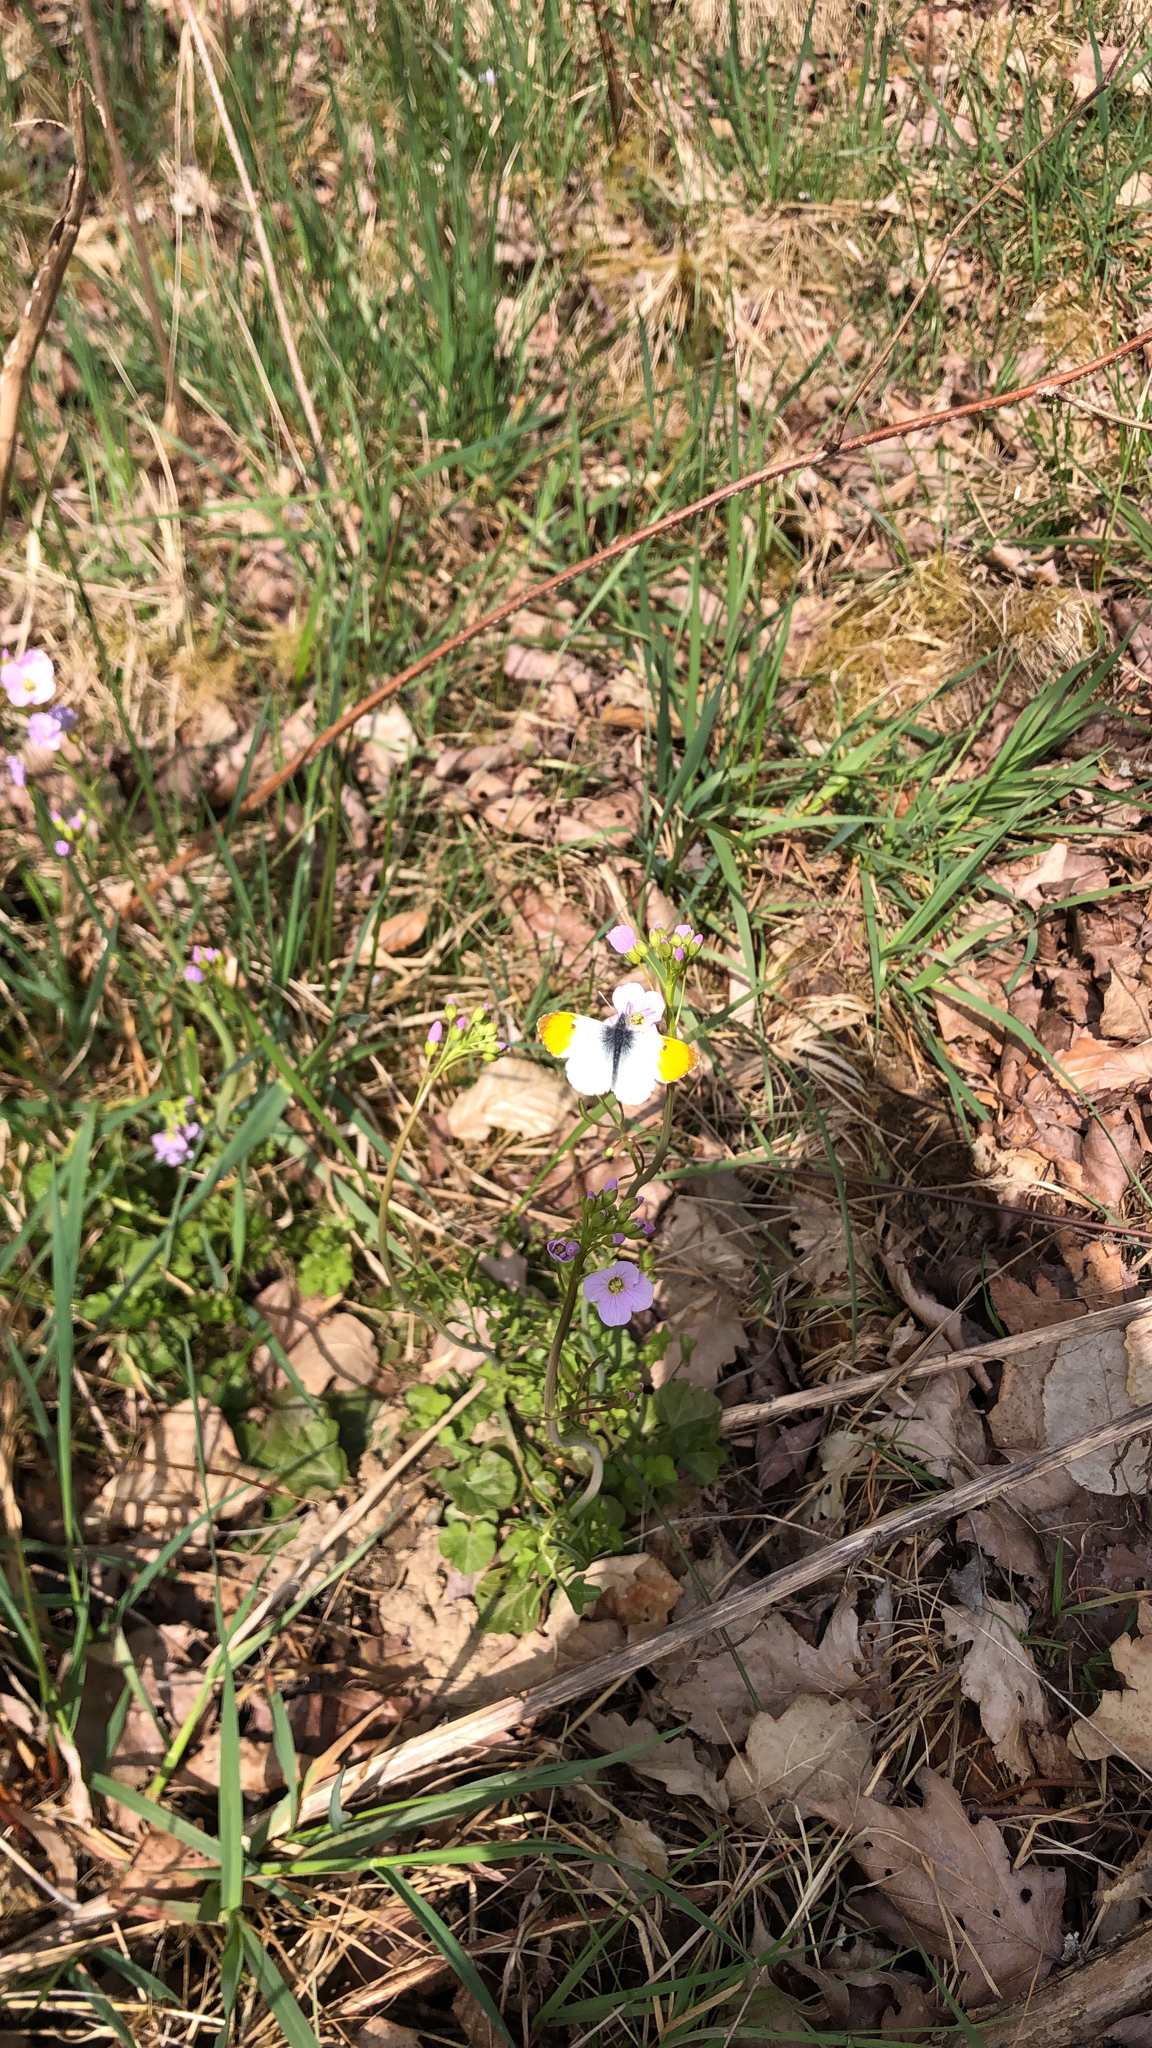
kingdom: Animalia
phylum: Arthropoda
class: Insecta
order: Lepidoptera
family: Pieridae
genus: Anthocharis
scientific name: Anthocharis cardamines
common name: Orange-tip
